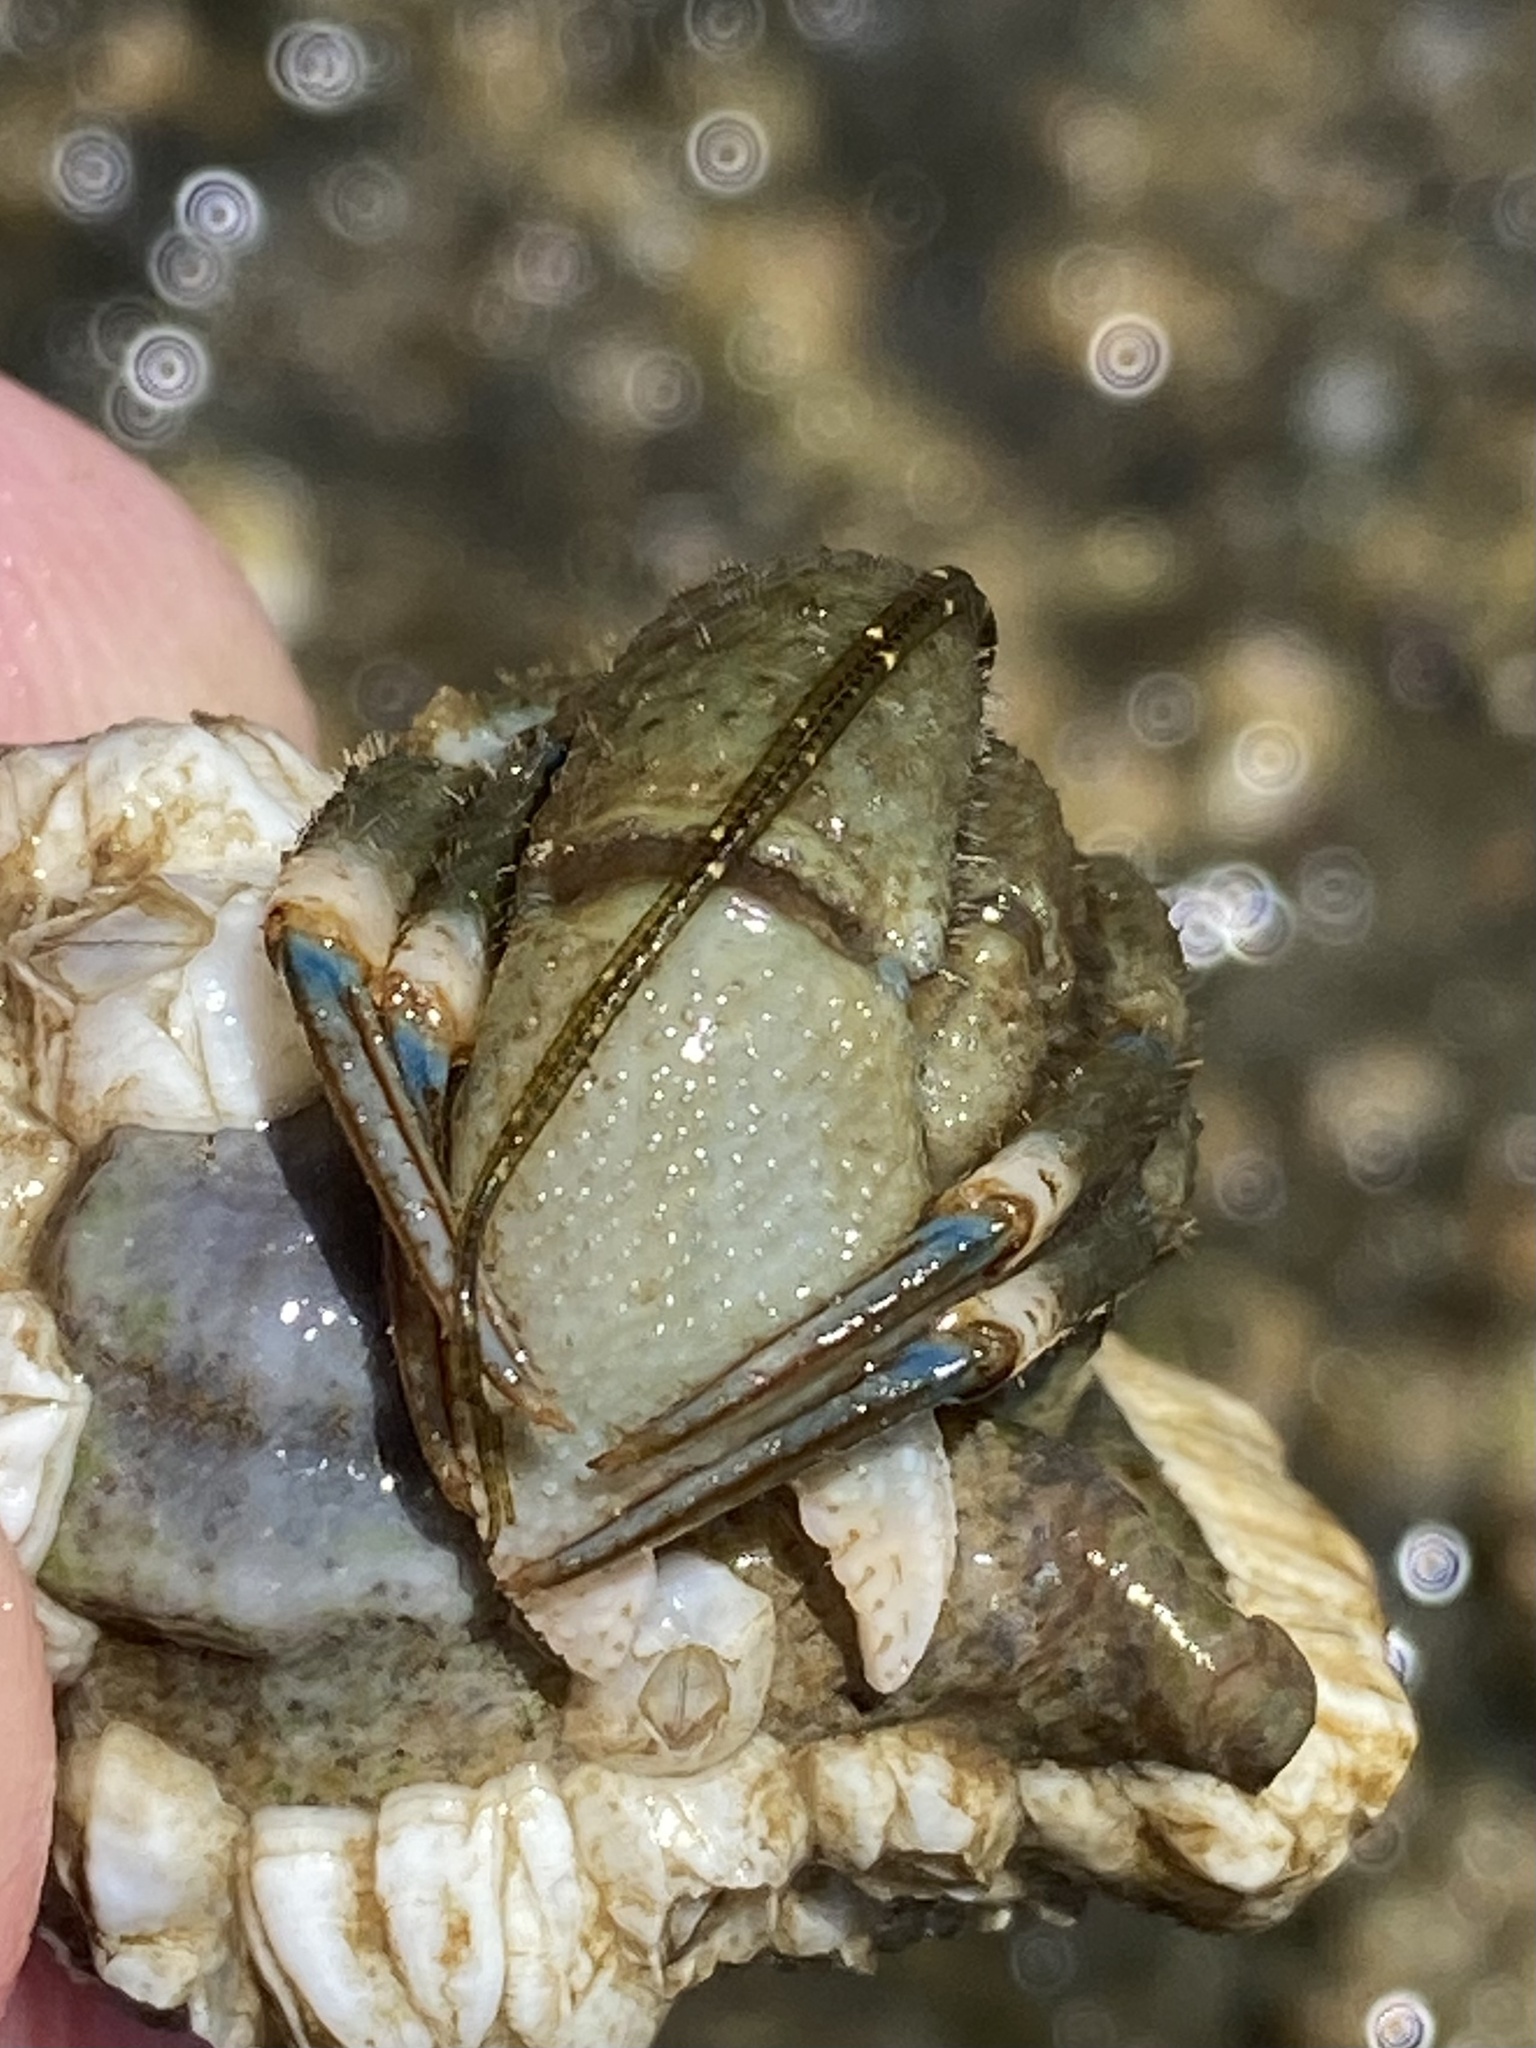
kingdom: Animalia
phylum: Arthropoda
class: Malacostraca
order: Decapoda
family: Paguridae
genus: Pagurus
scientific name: Pagurus hirsutiusculus
